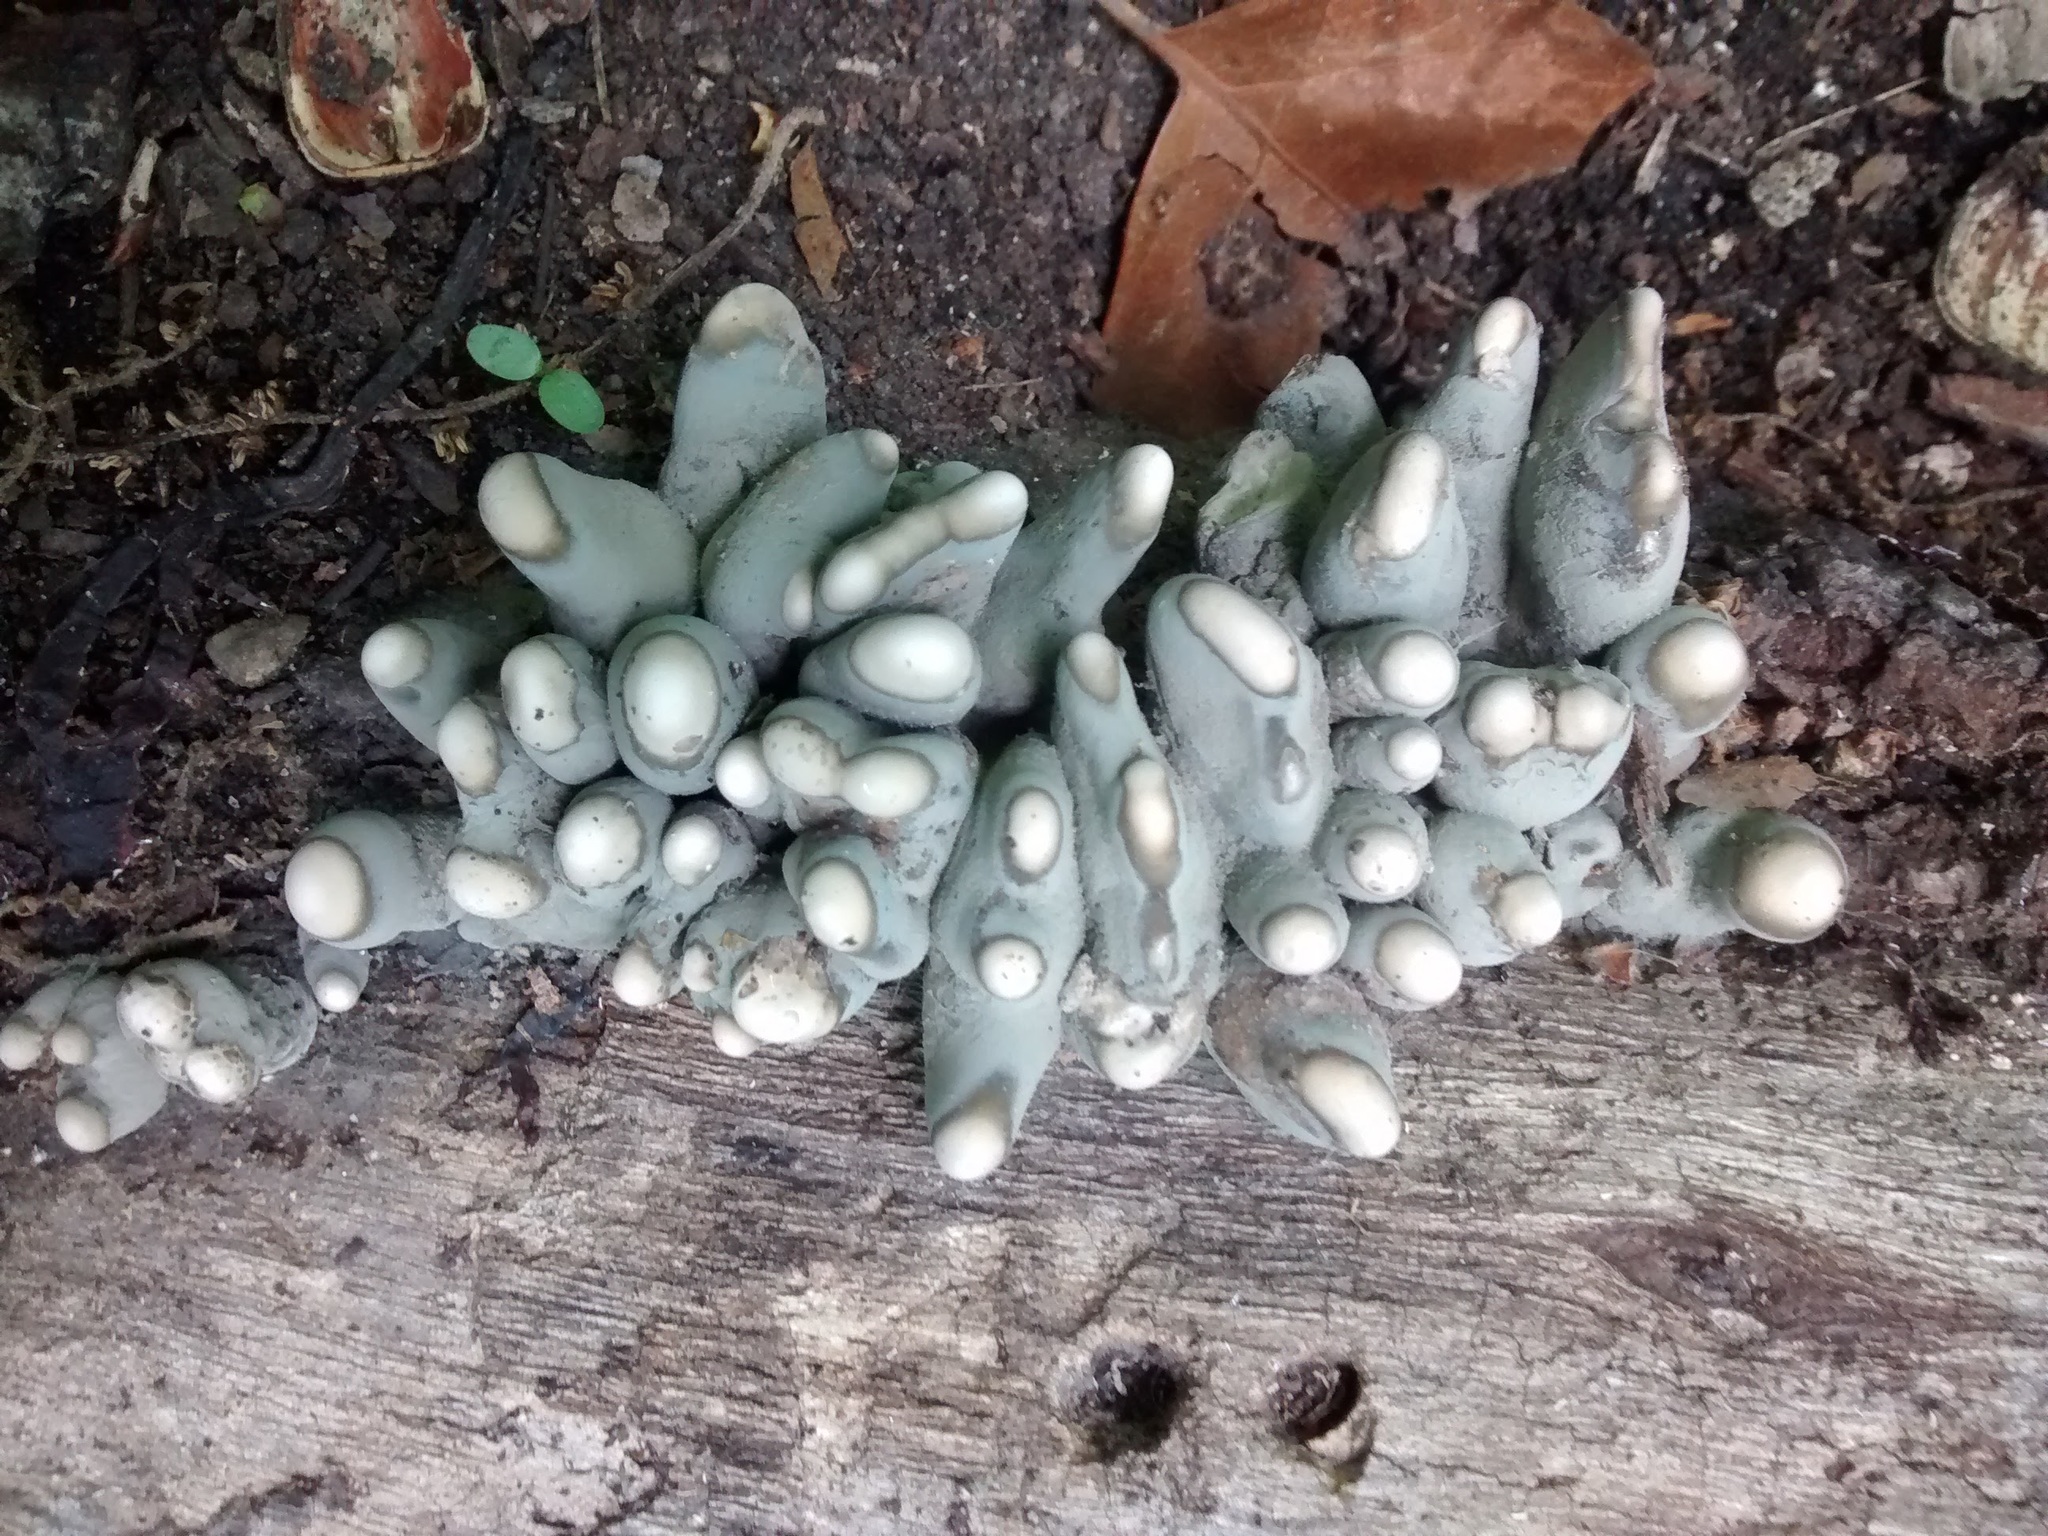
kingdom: Fungi
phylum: Ascomycota
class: Sordariomycetes
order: Xylariales
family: Xylariaceae
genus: Xylaria
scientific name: Xylaria polymorpha
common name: Dead man's fingers
